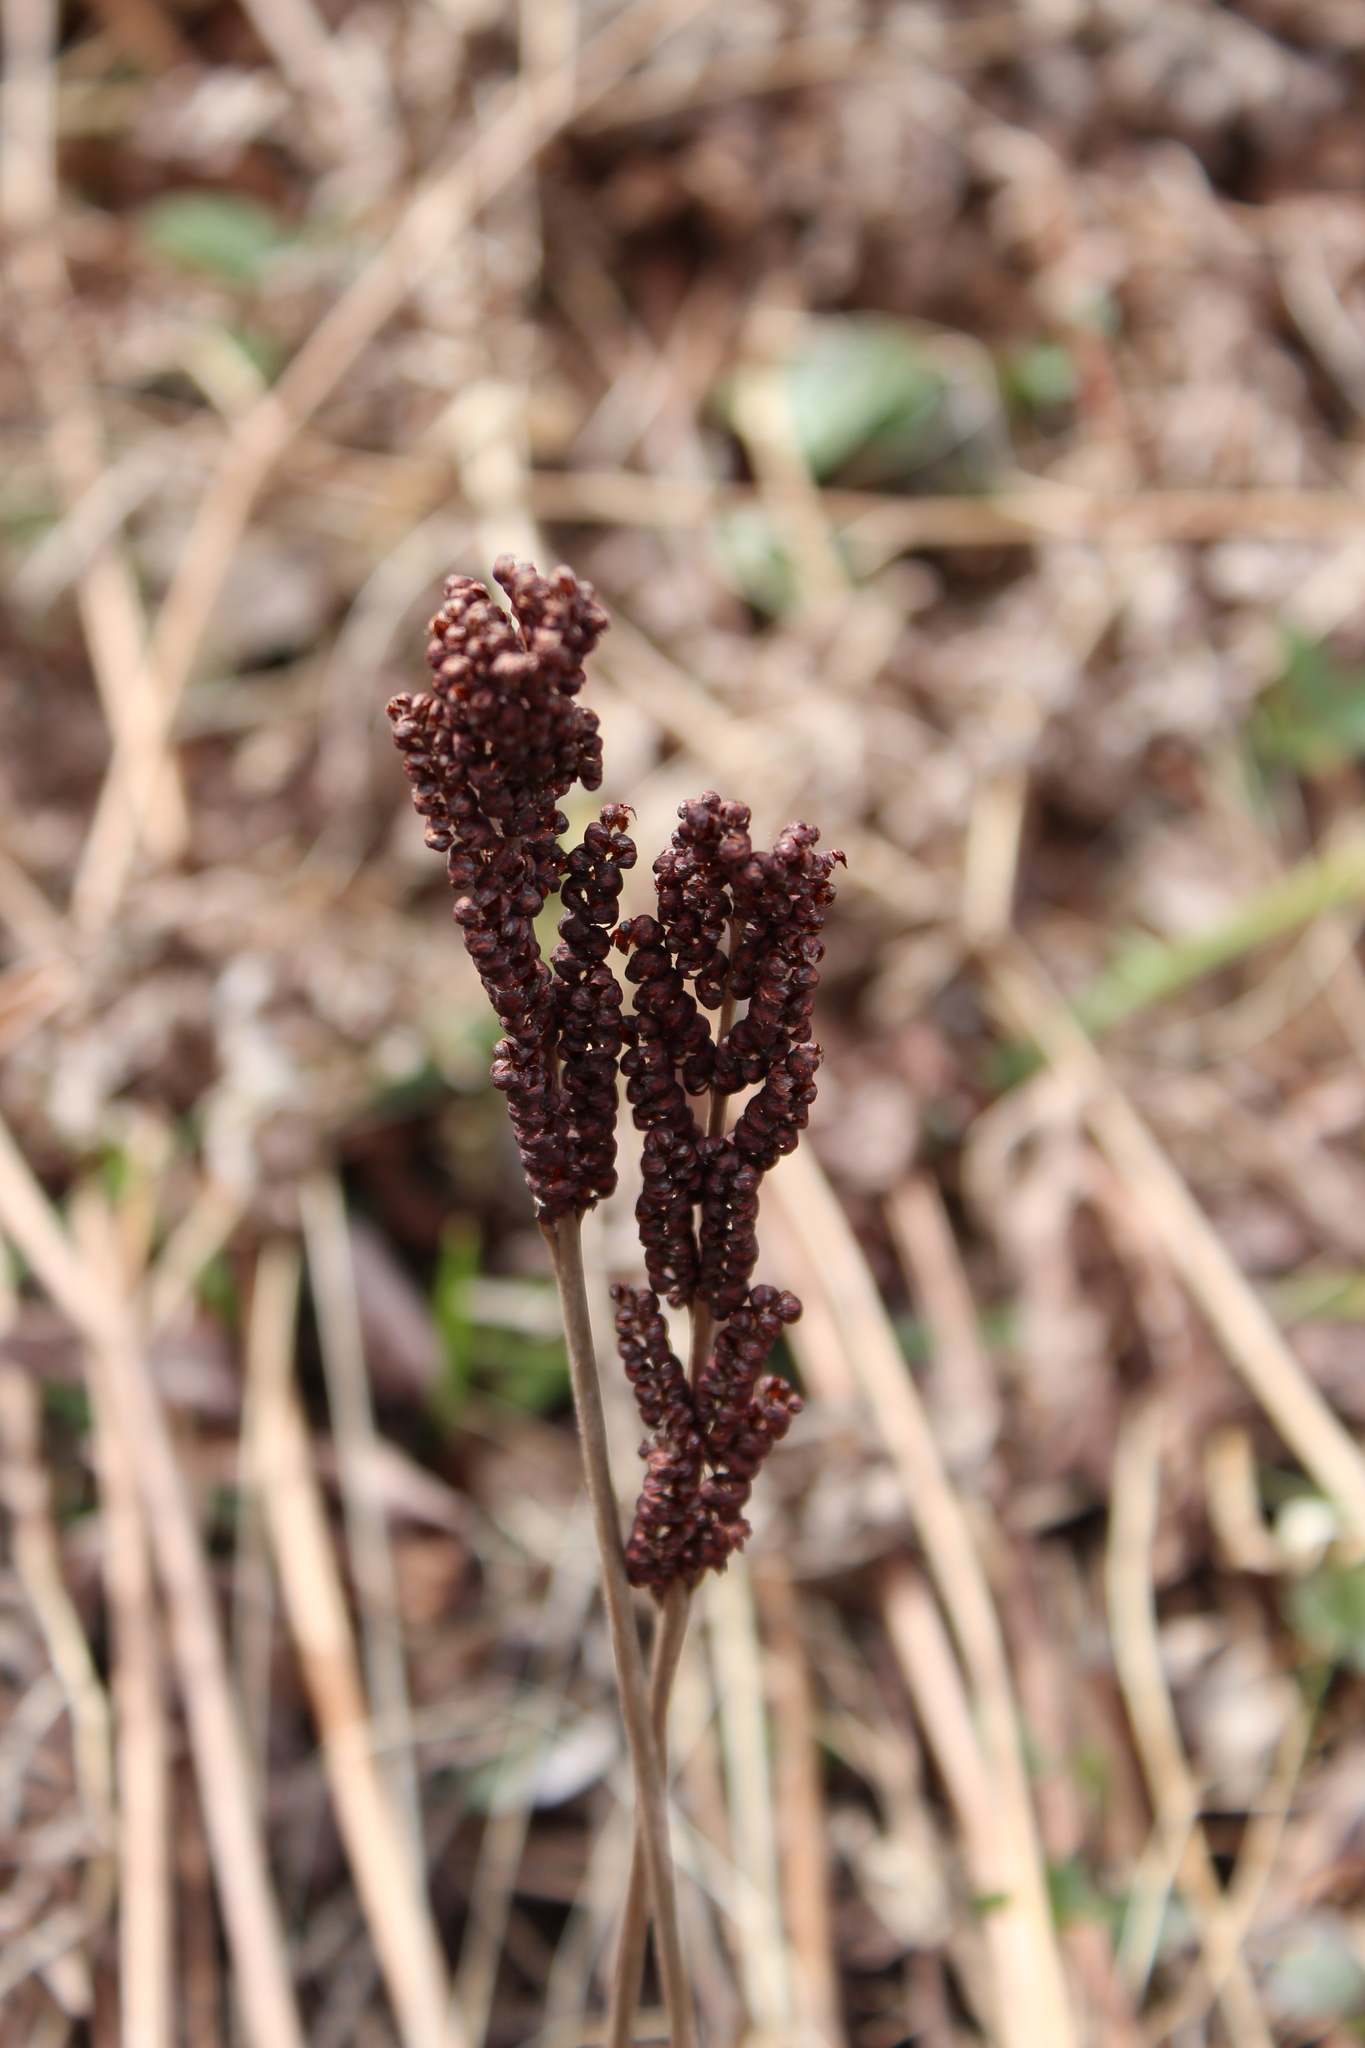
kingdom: Plantae
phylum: Tracheophyta
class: Polypodiopsida
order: Polypodiales
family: Onocleaceae
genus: Onoclea
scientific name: Onoclea sensibilis
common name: Sensitive fern
